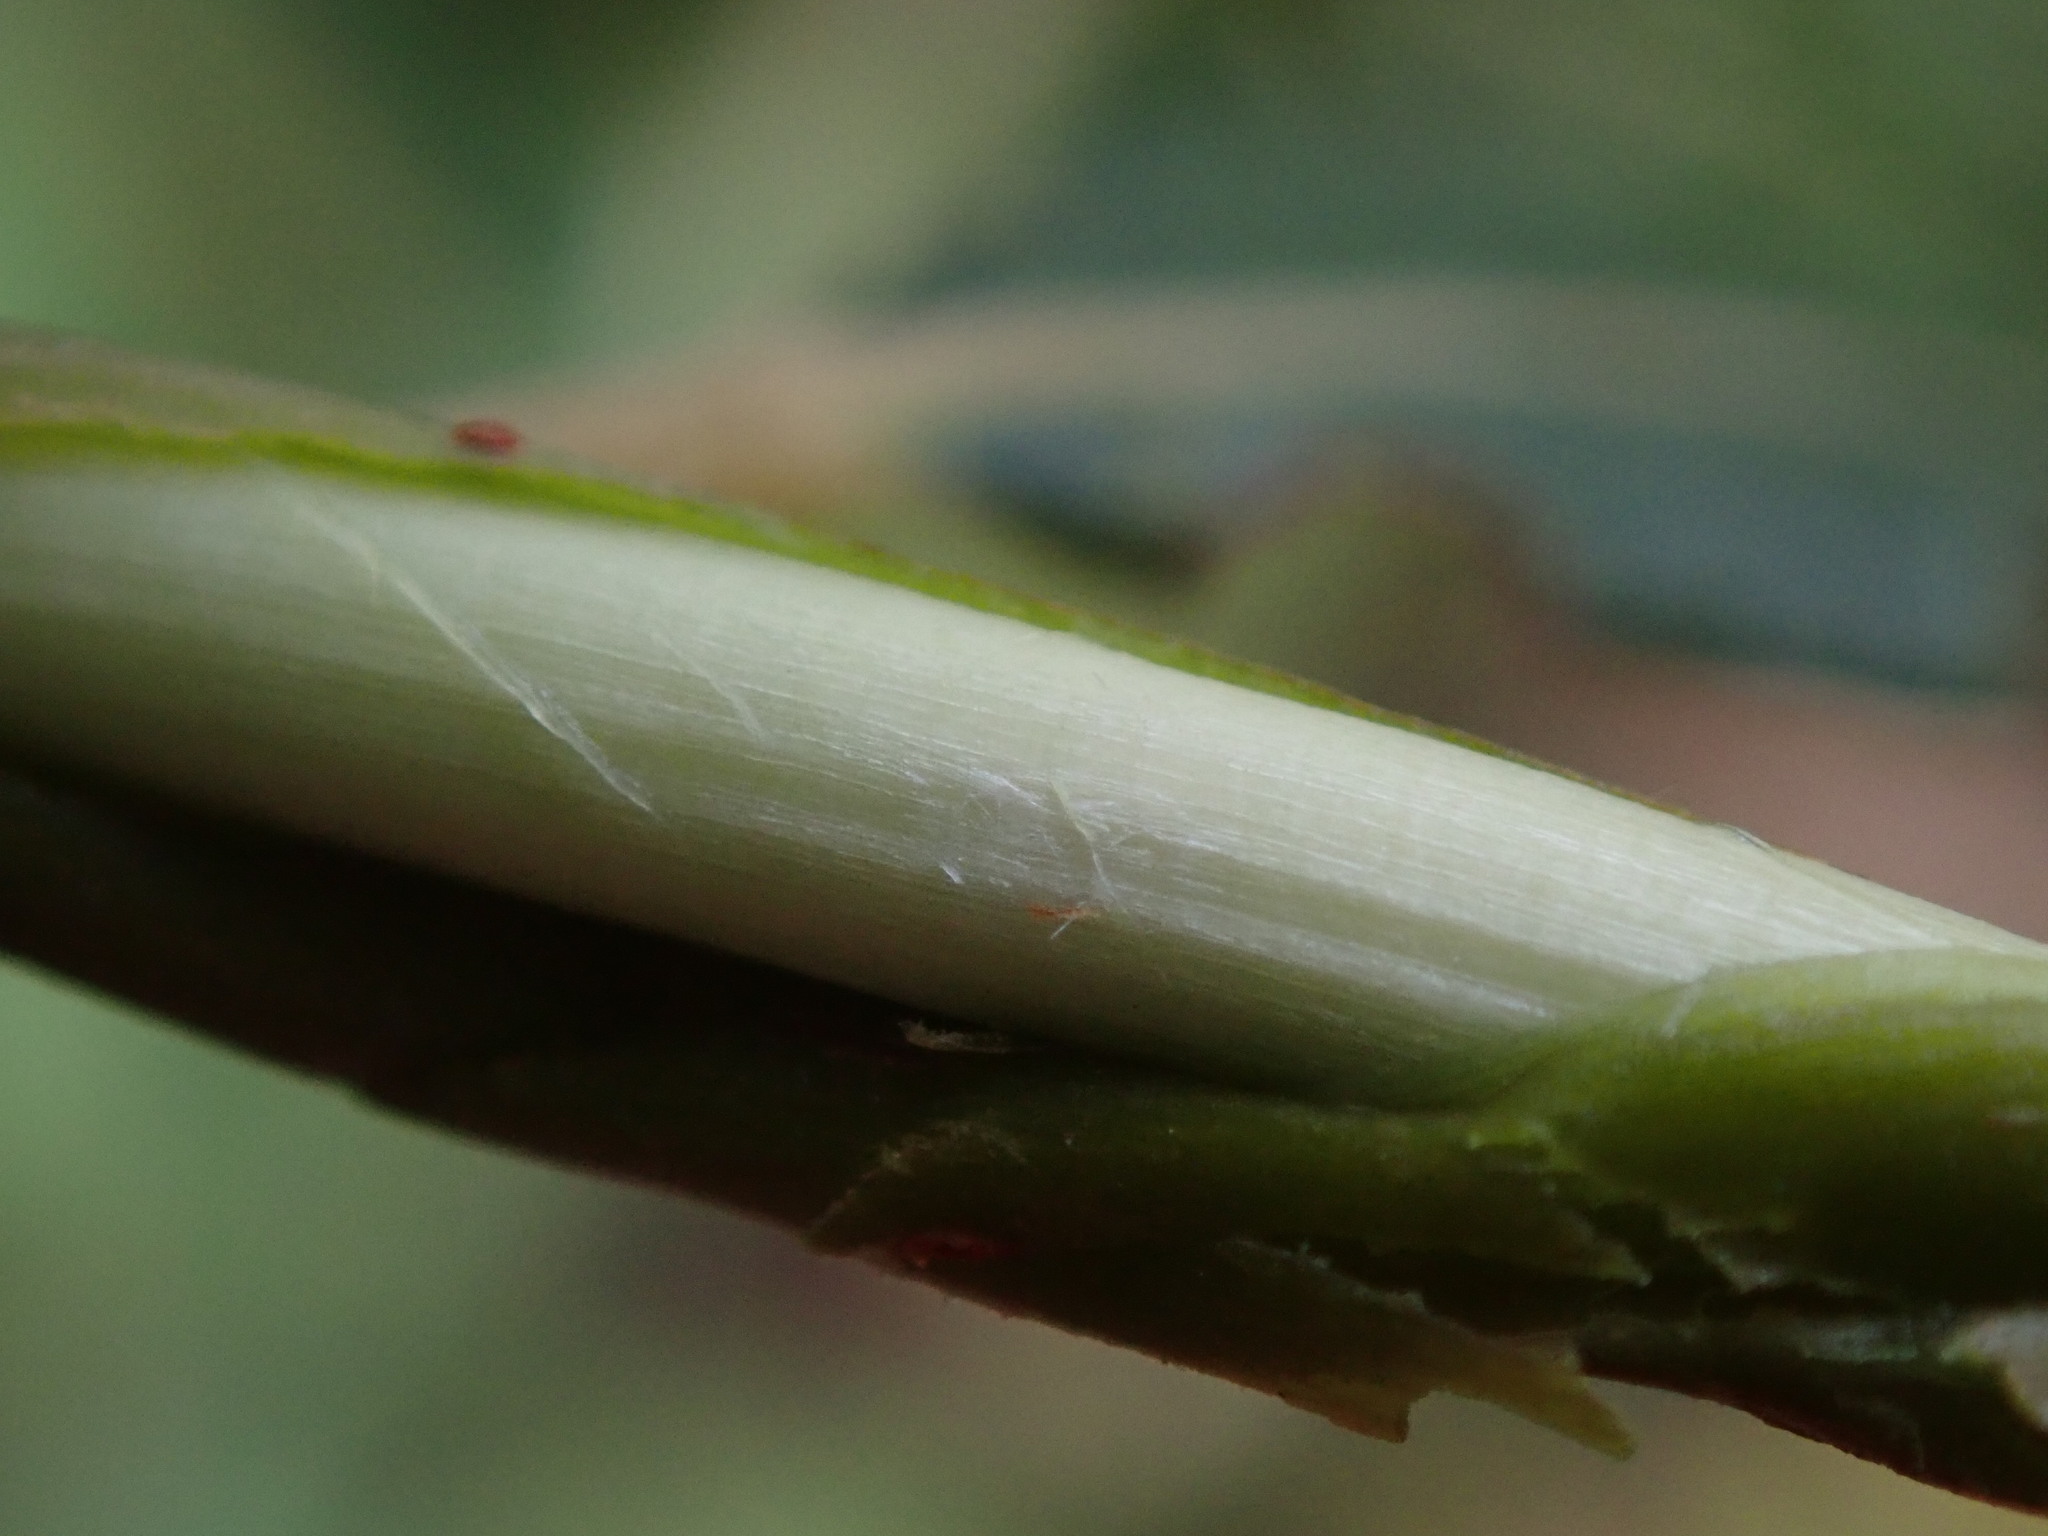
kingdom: Plantae
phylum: Tracheophyta
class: Magnoliopsida
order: Malpighiales
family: Salicaceae
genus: Salix
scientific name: Salix cinerea
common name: Common sallow
